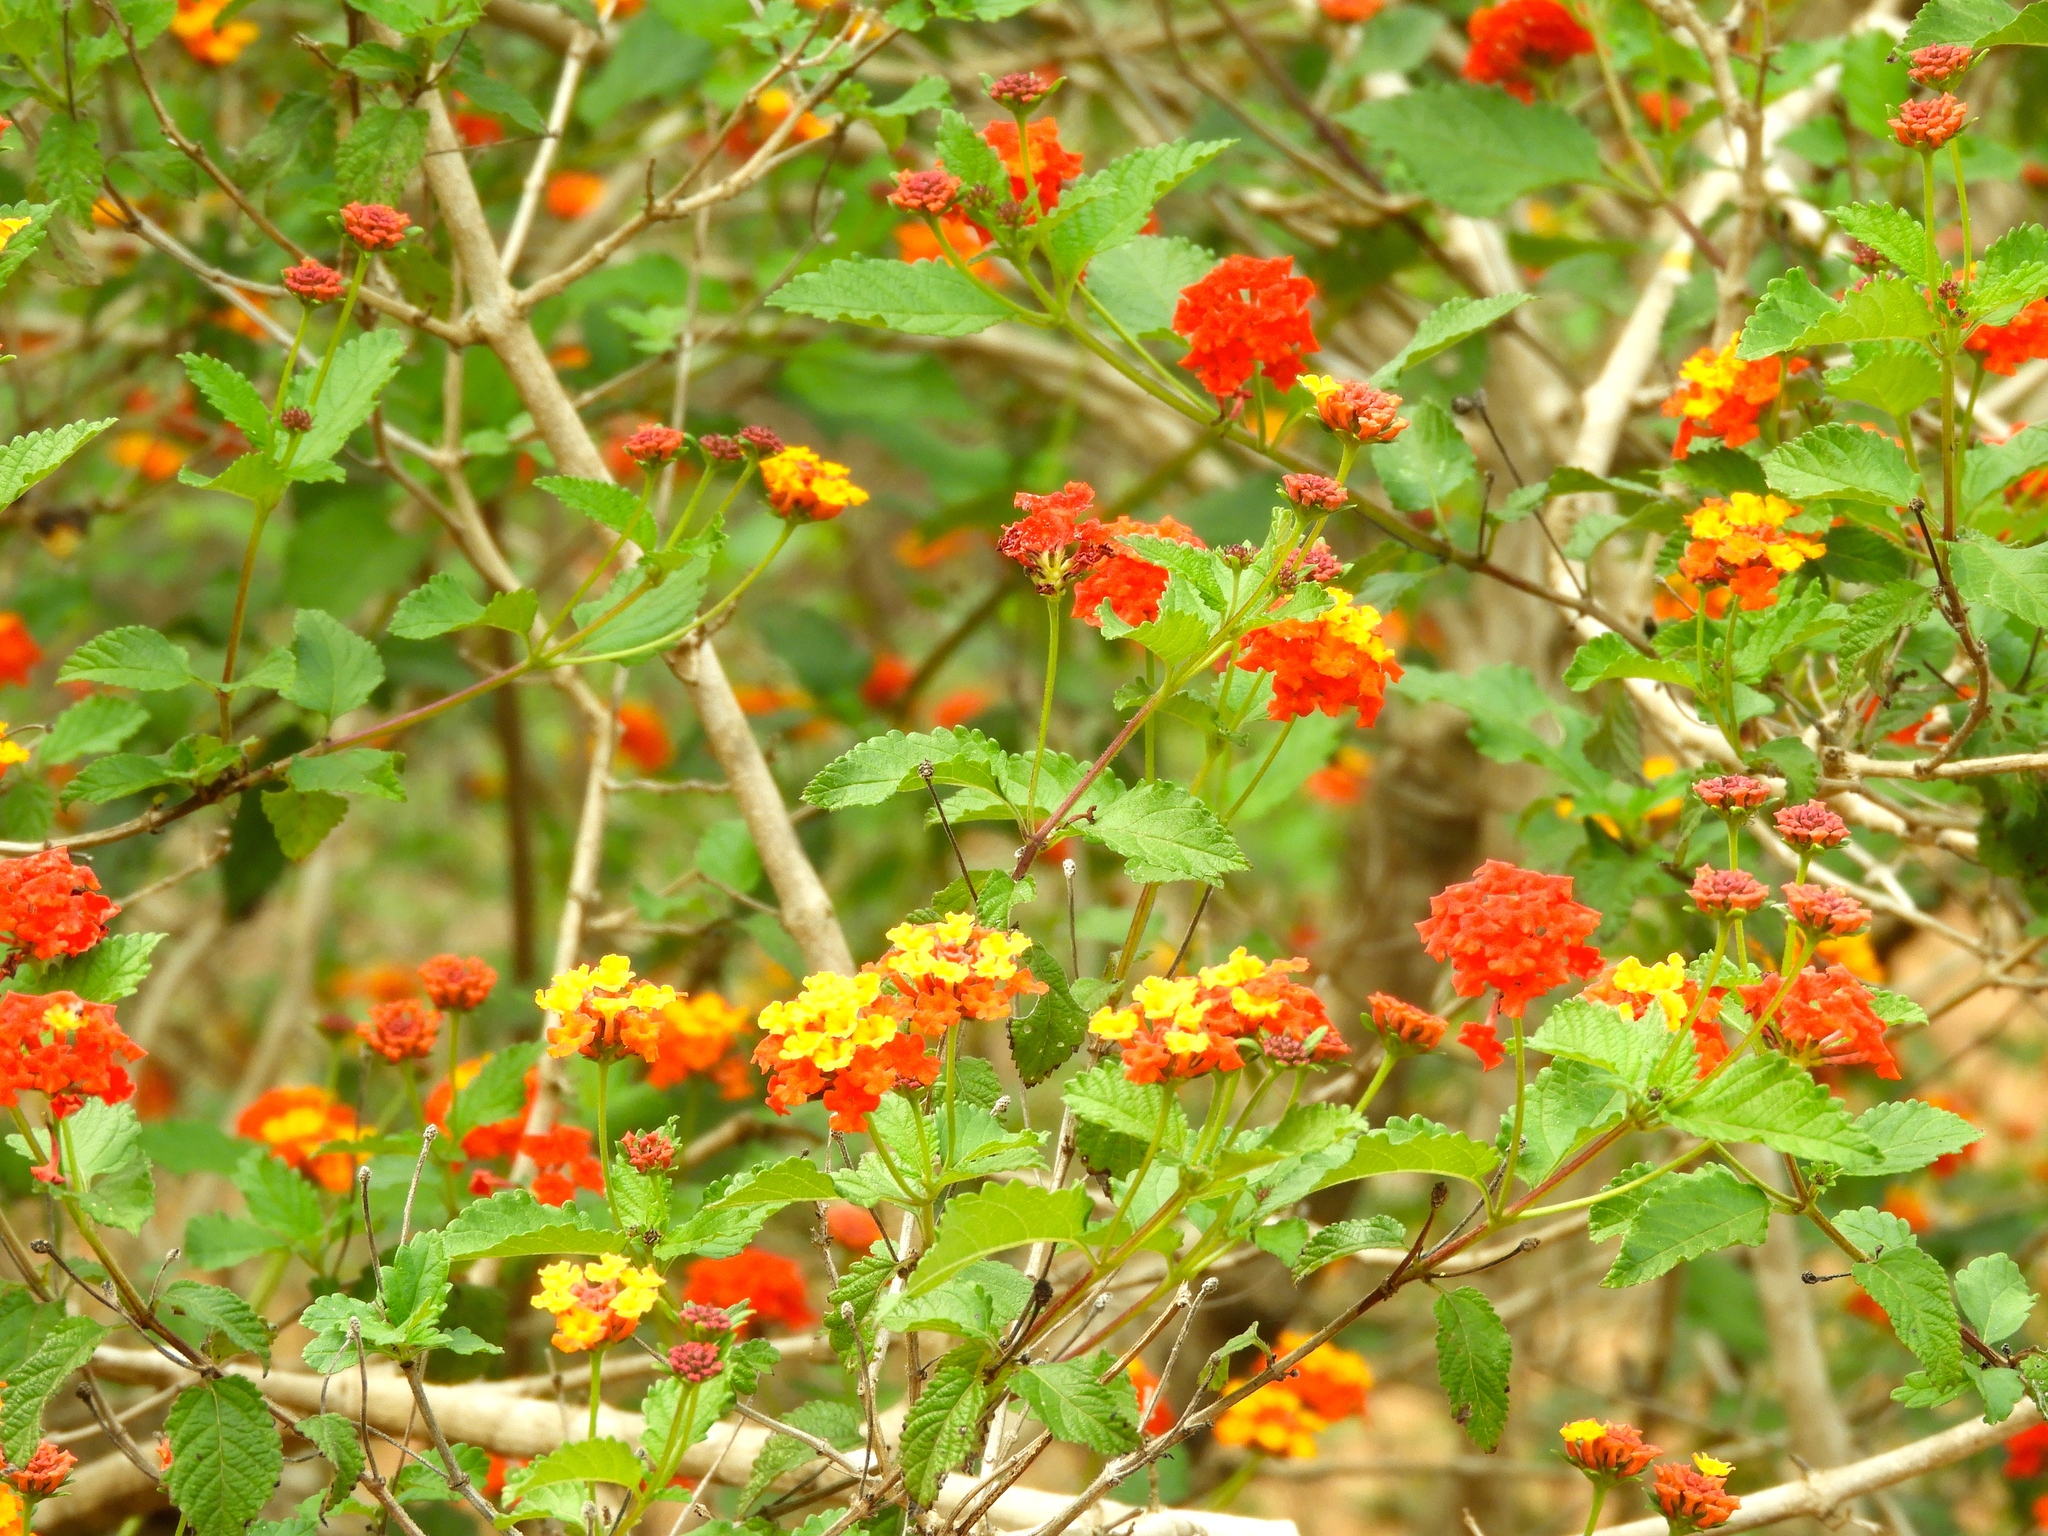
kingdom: Plantae
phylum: Tracheophyta
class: Magnoliopsida
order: Lamiales
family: Verbenaceae
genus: Lantana
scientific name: Lantana camara
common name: Lantana
